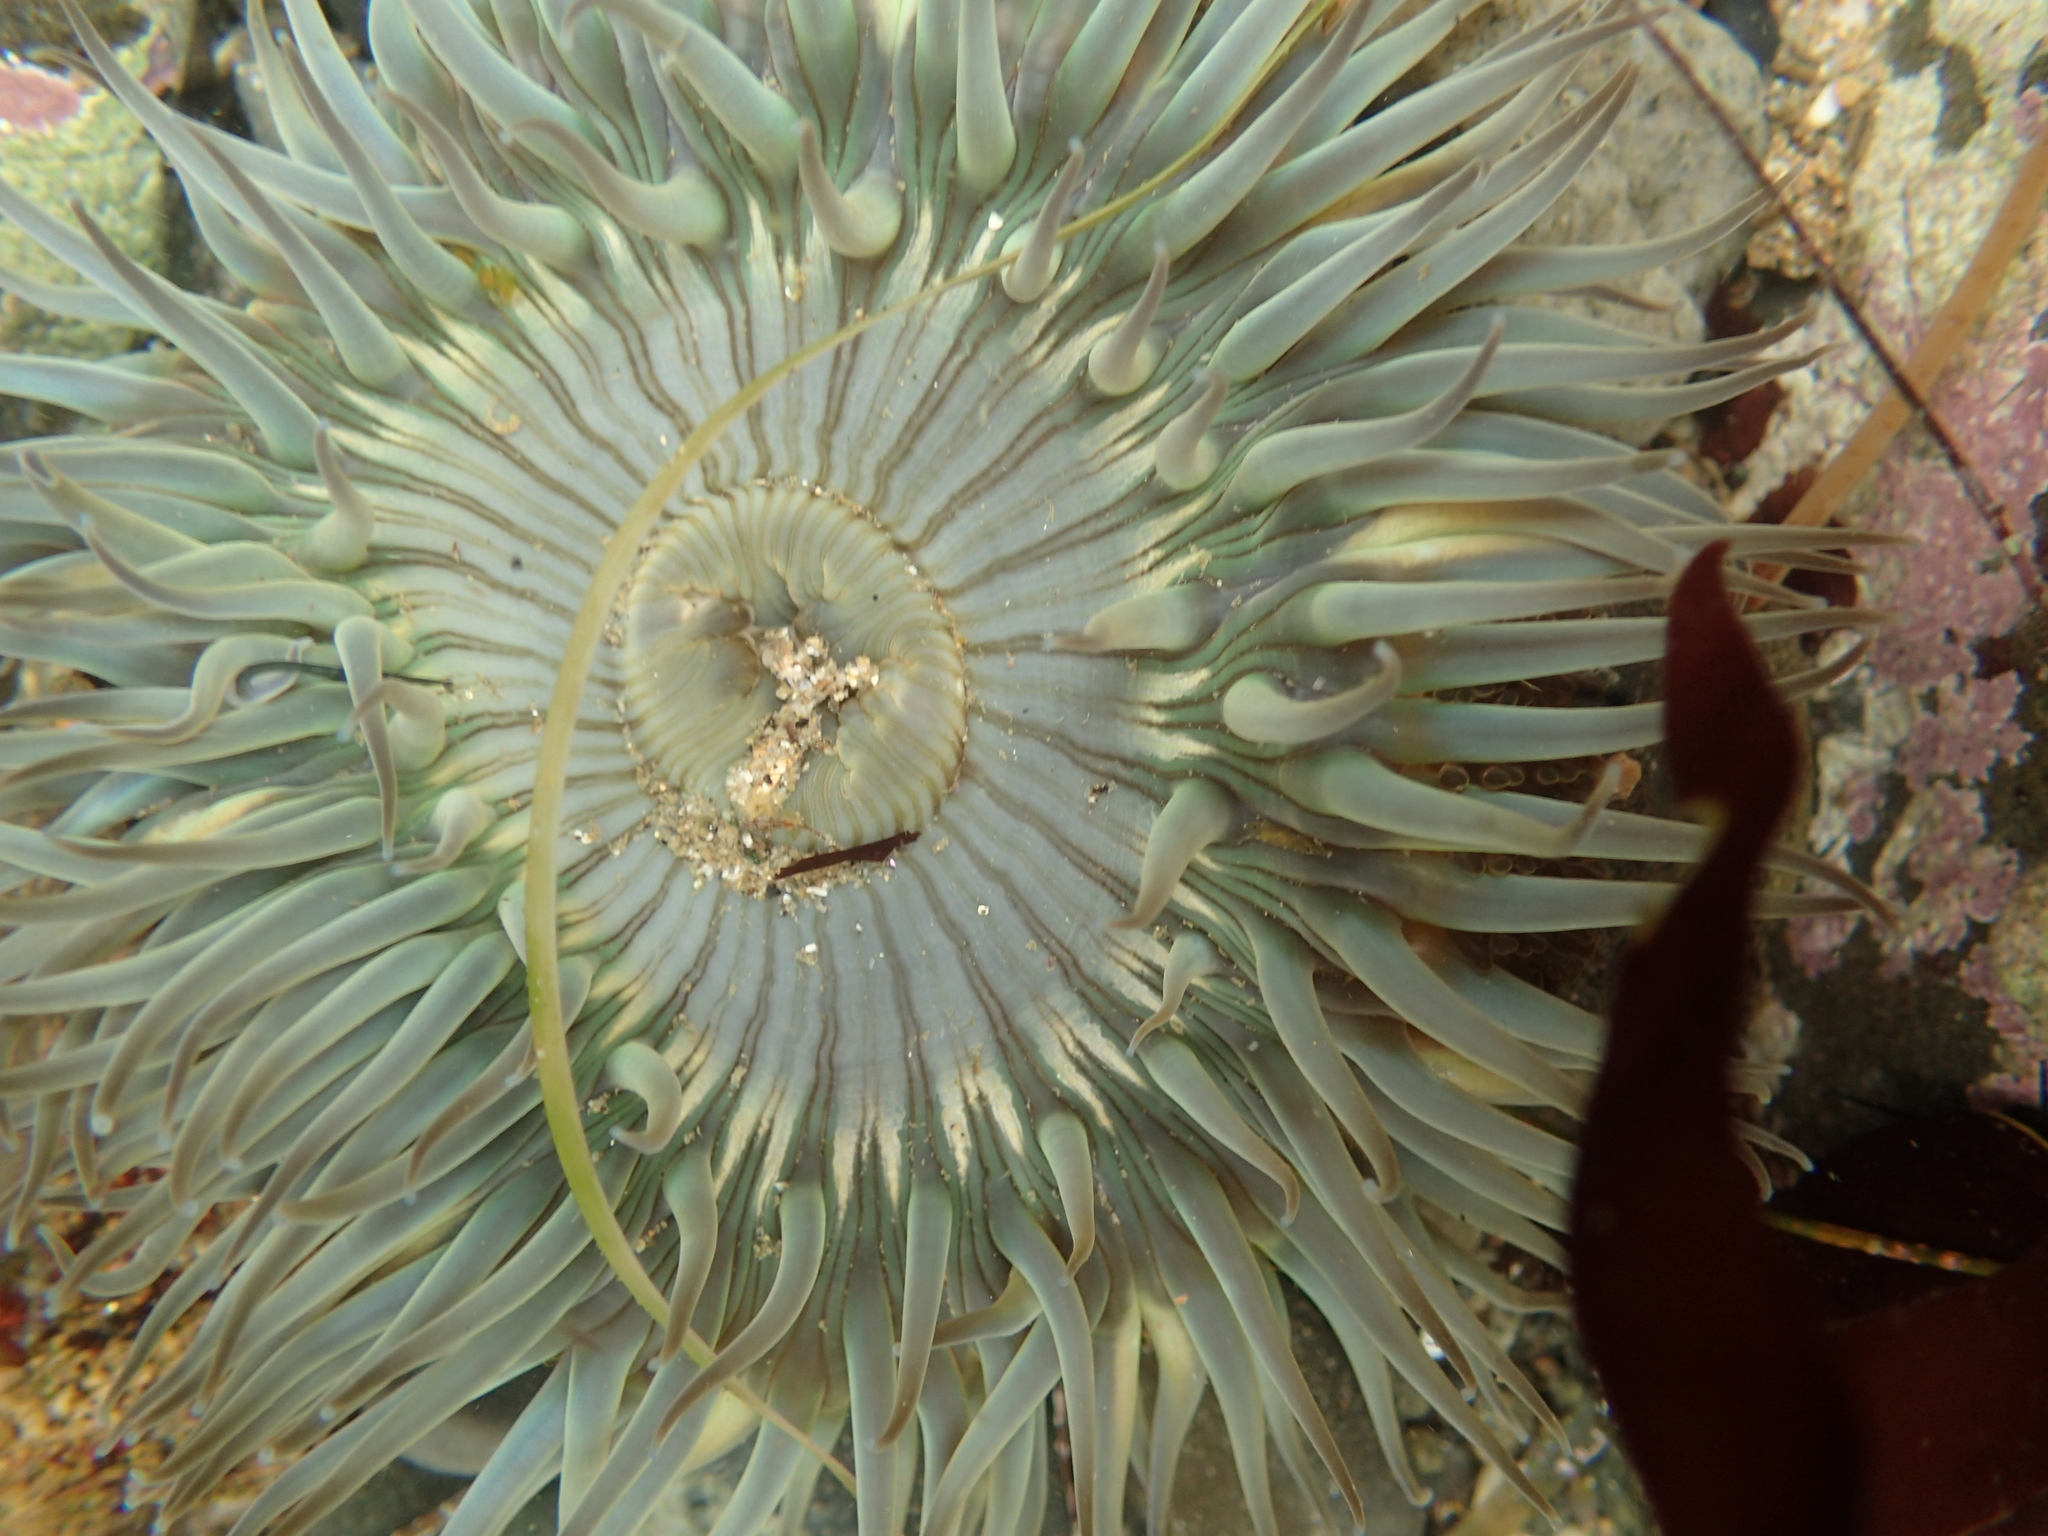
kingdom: Animalia
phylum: Cnidaria
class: Anthozoa
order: Actiniaria
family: Actiniidae
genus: Anthopleura
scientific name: Anthopleura sola
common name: Sun anemone
